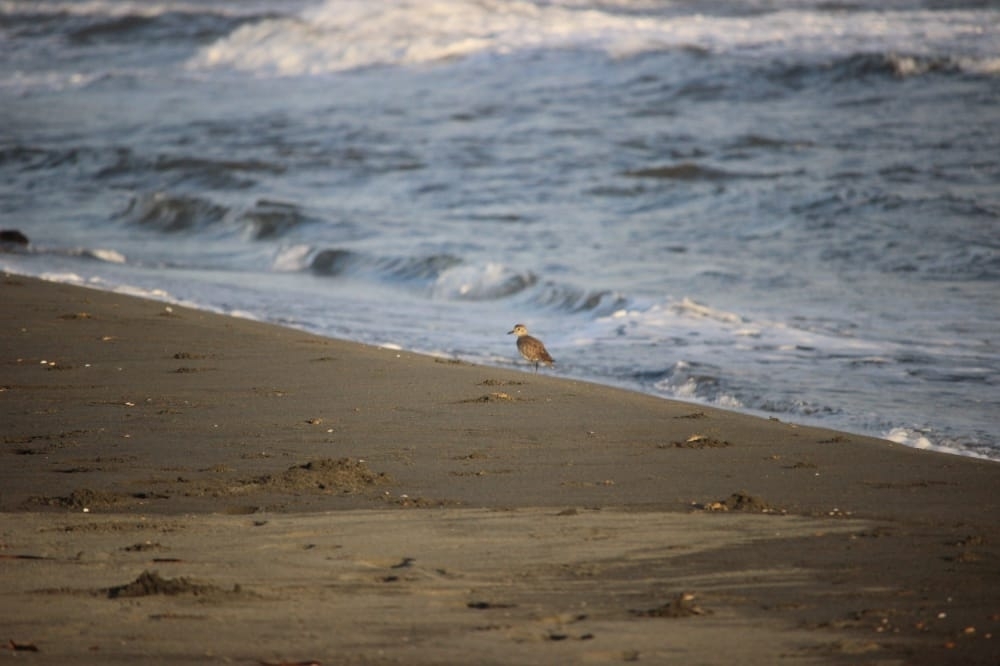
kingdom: Animalia
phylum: Chordata
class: Aves
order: Charadriiformes
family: Charadriidae
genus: Pluvialis
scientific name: Pluvialis squatarola
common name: Grey plover
